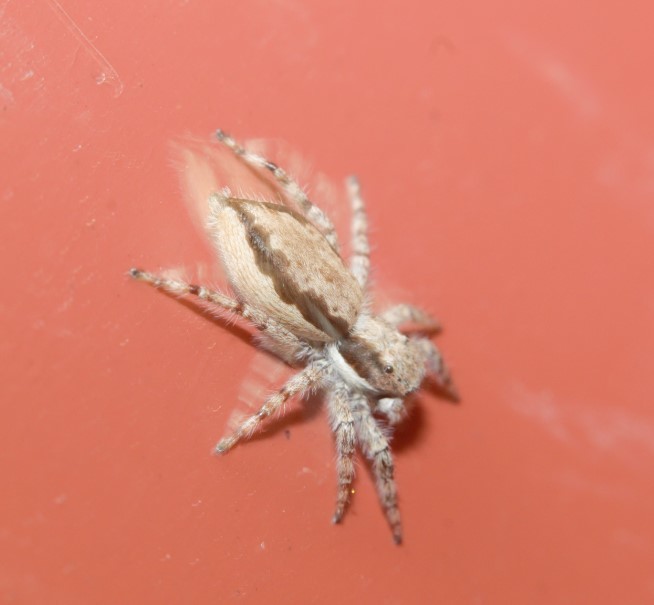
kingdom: Animalia
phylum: Arthropoda
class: Arachnida
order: Araneae
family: Salticidae
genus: Menemerus
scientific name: Menemerus bivittatus
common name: Gray wall jumper
